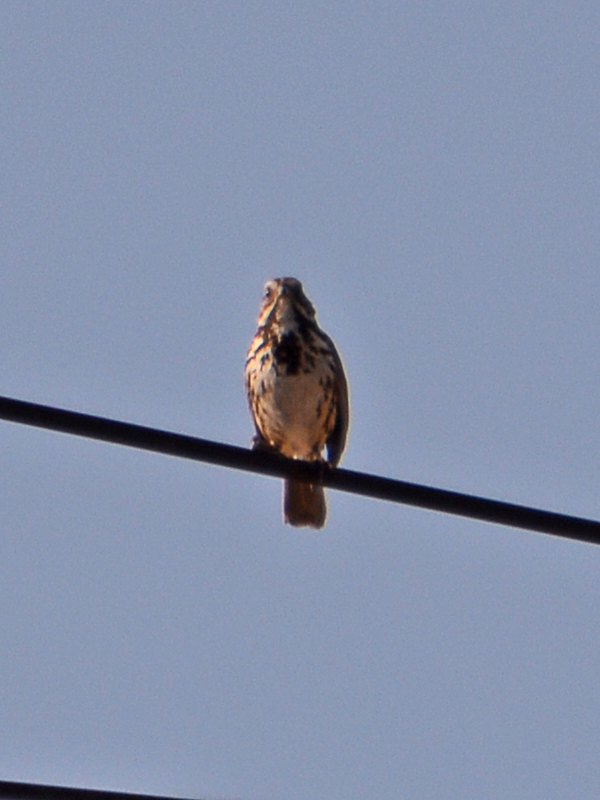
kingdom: Animalia
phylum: Chordata
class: Aves
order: Passeriformes
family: Passerellidae
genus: Melospiza
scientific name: Melospiza melodia
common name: Song sparrow
